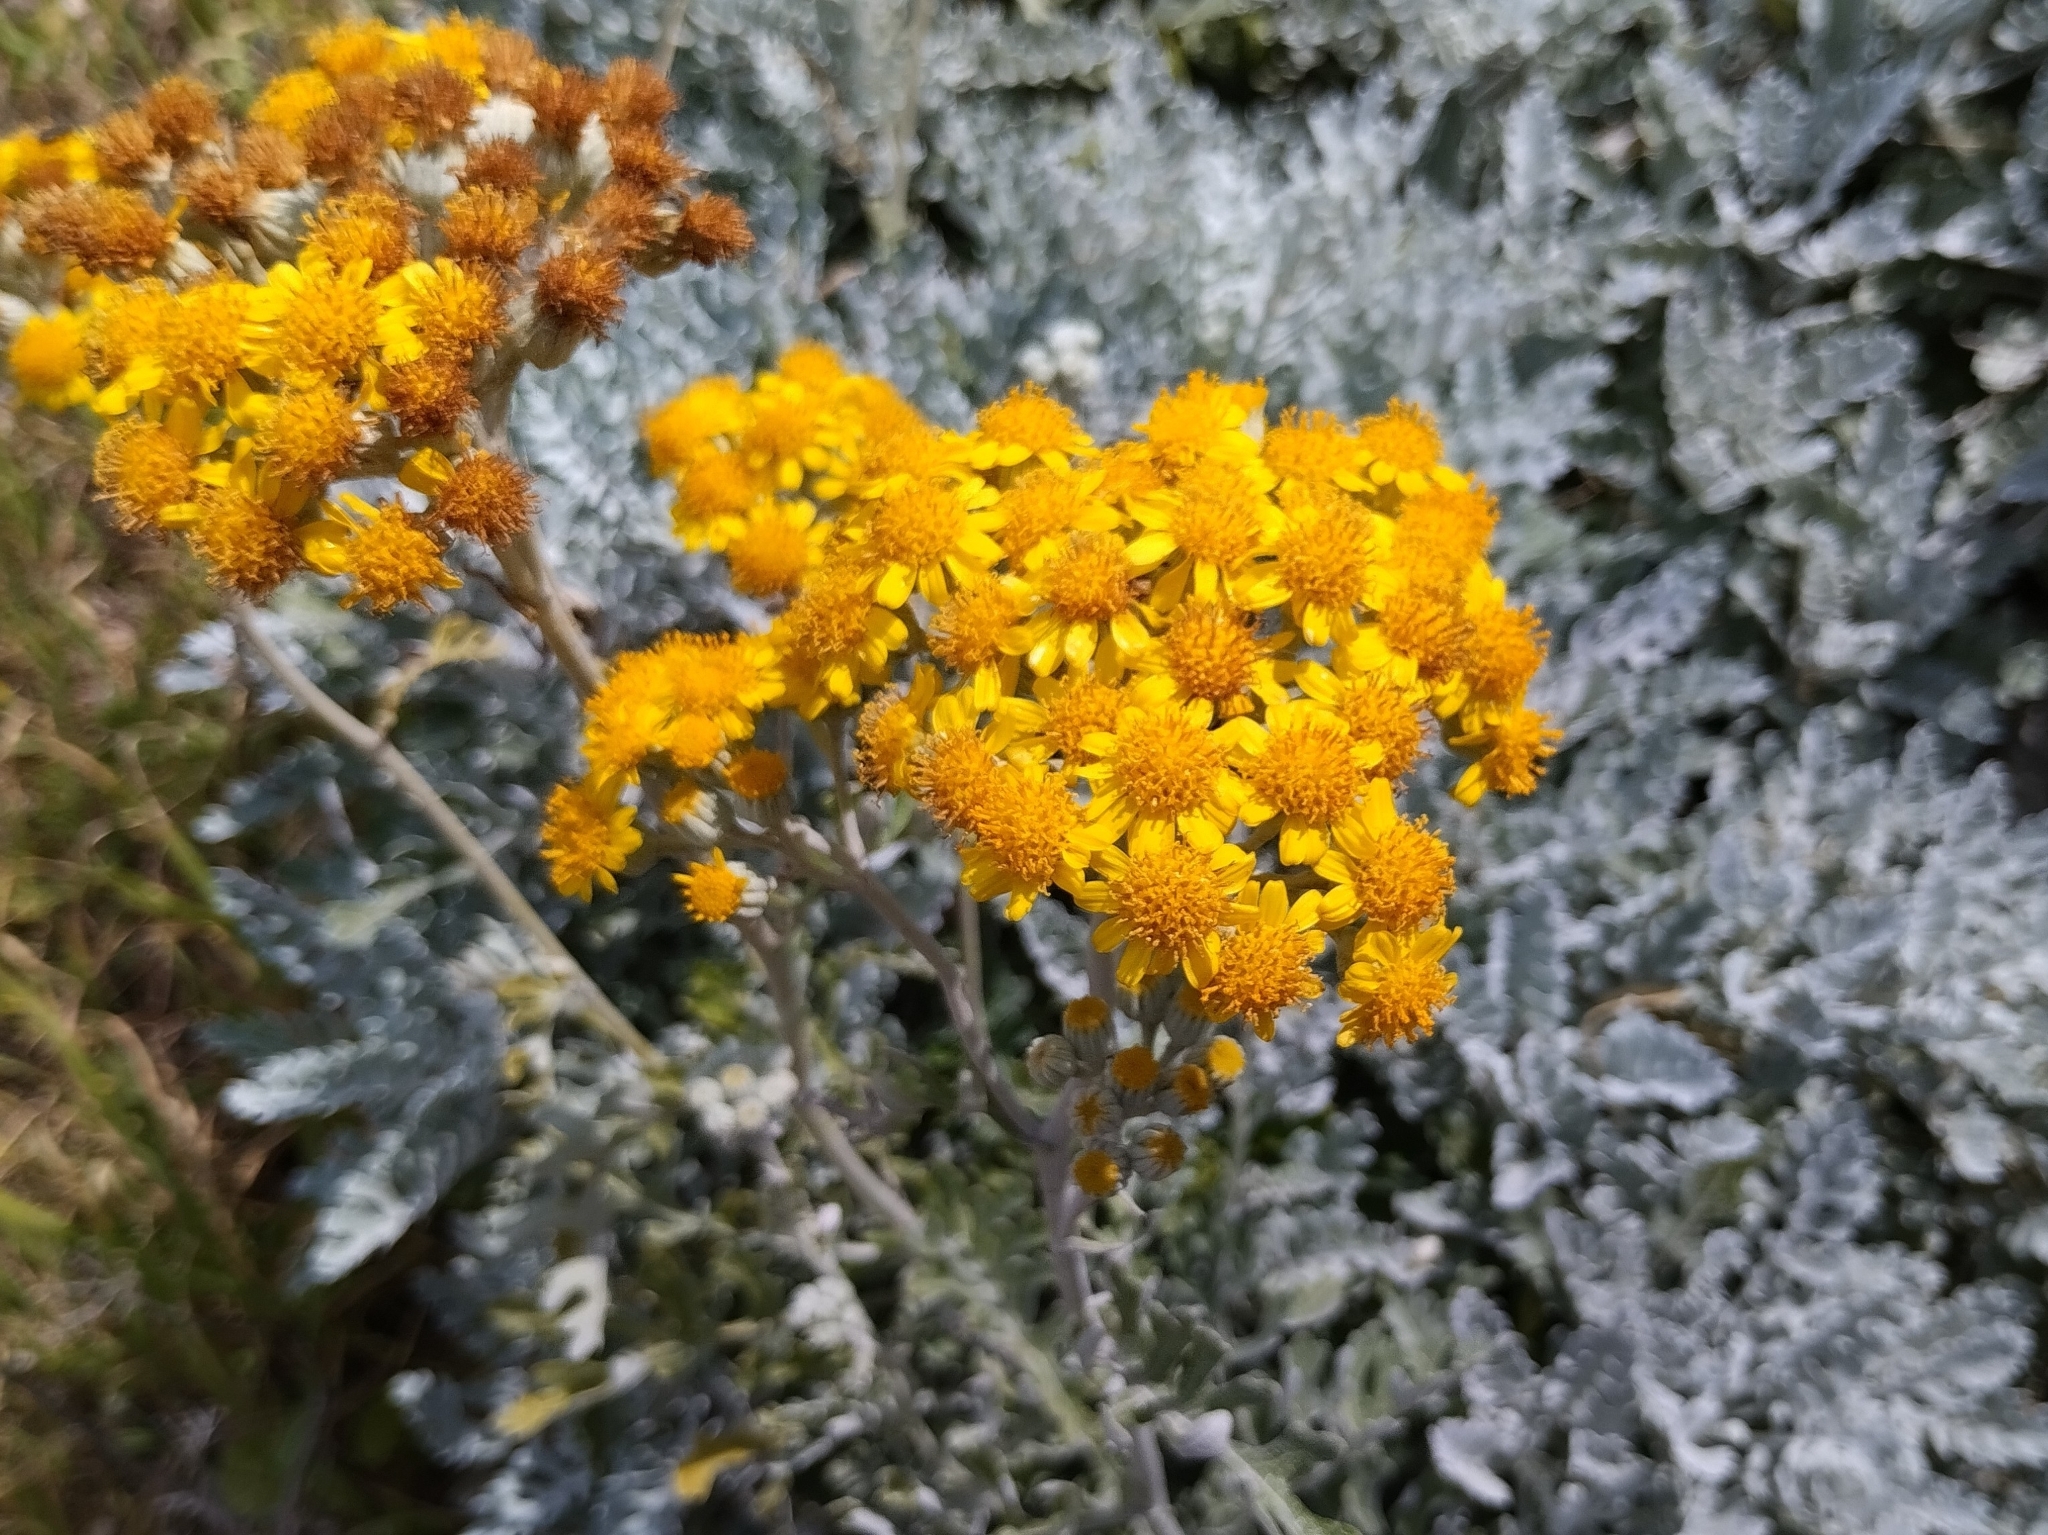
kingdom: Plantae
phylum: Tracheophyta
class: Magnoliopsida
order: Asterales
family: Asteraceae
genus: Jacobaea
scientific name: Jacobaea maritima
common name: Silver ragwort
